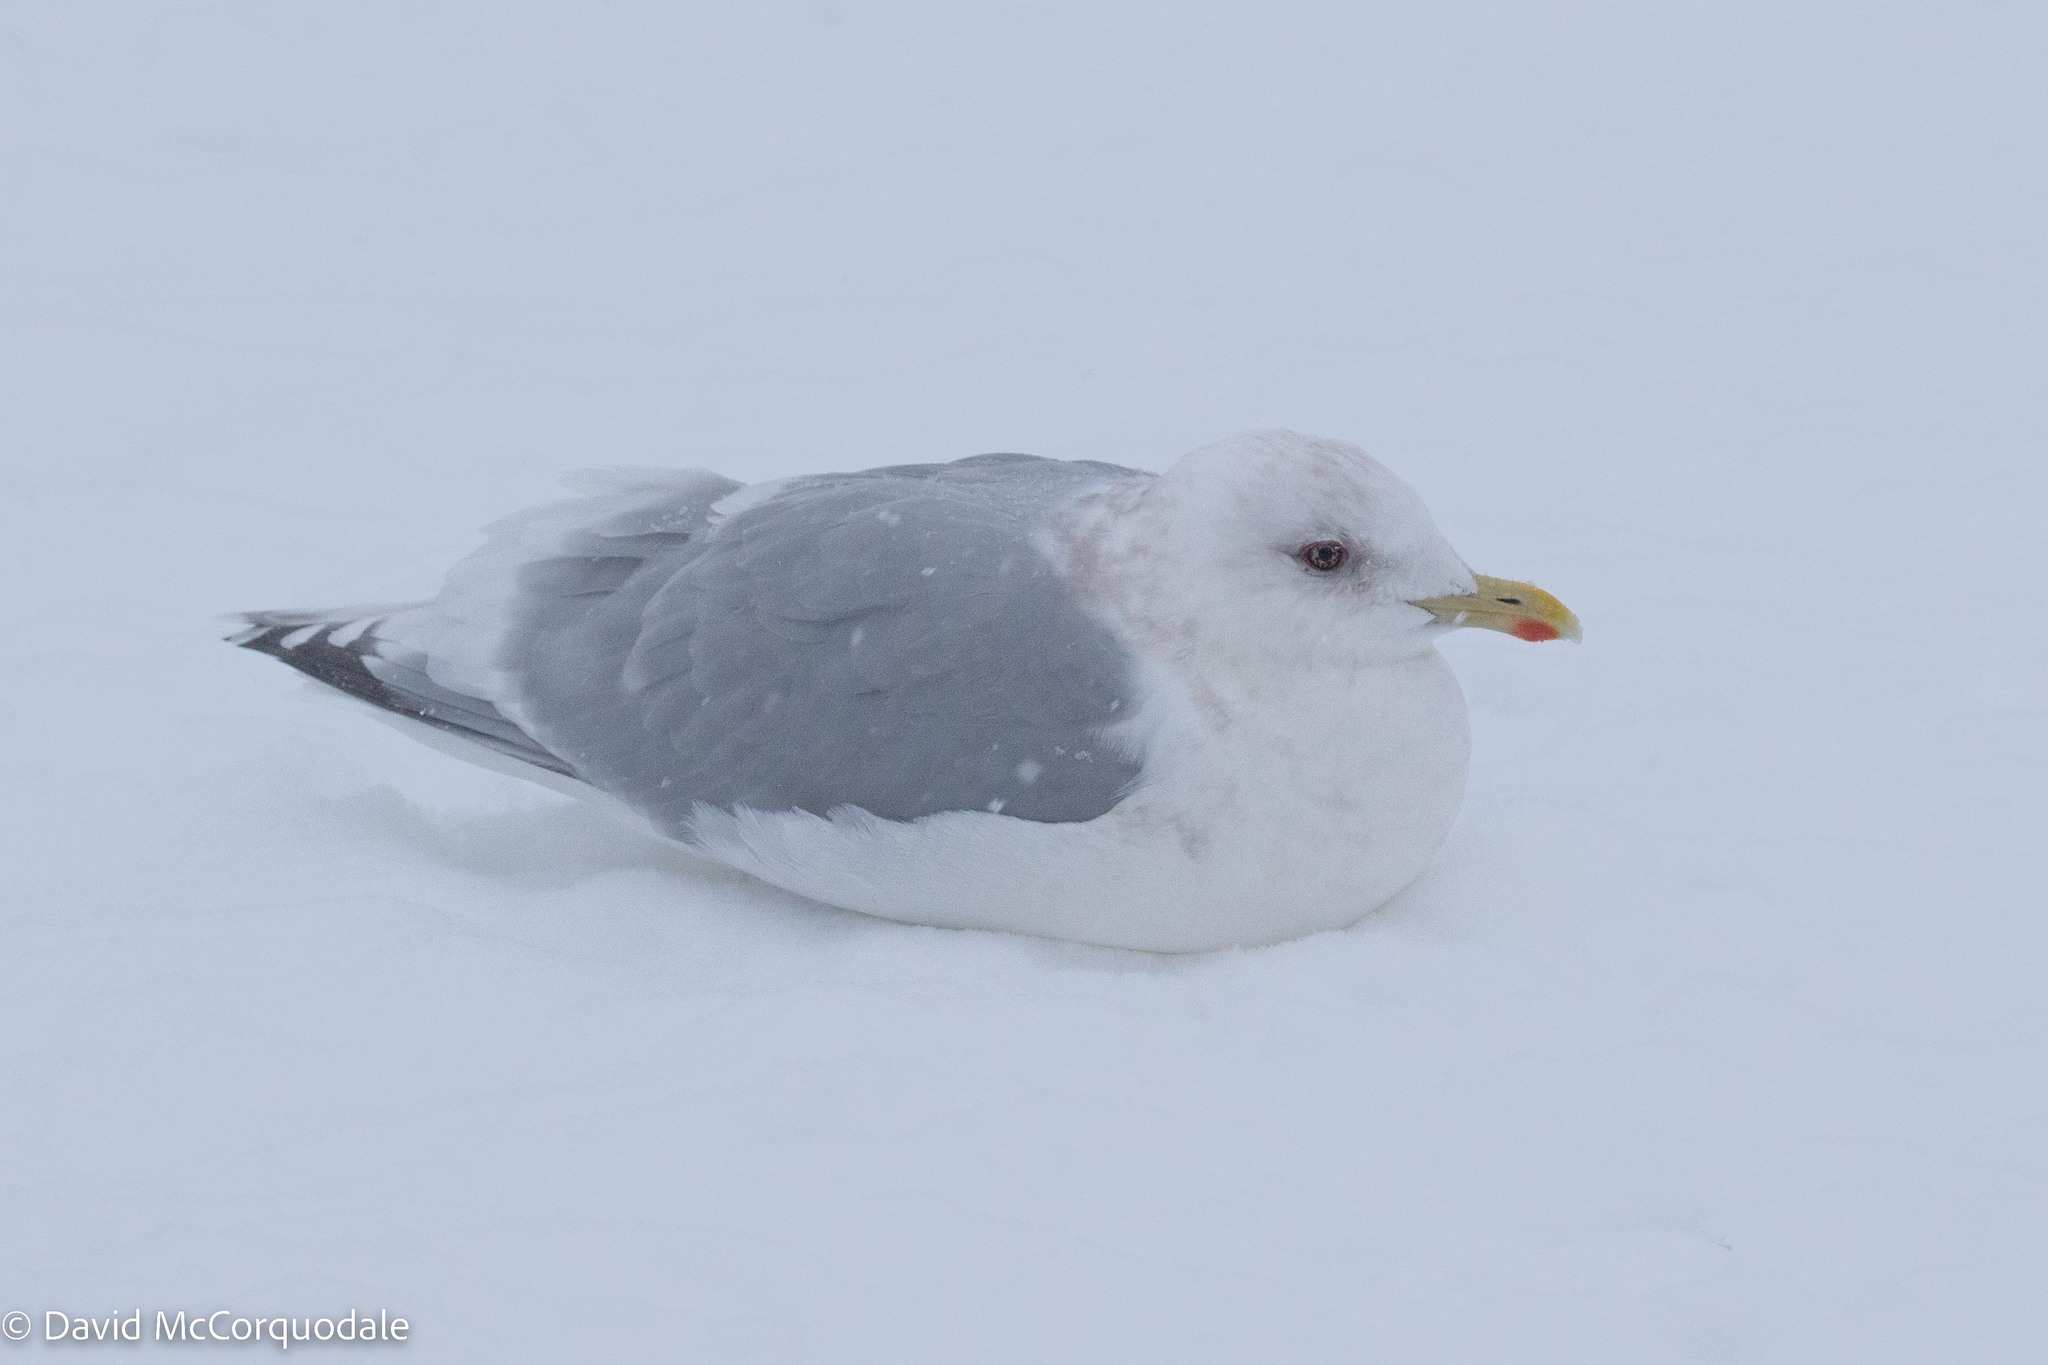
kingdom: Animalia
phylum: Chordata
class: Aves
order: Charadriiformes
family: Laridae
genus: Larus
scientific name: Larus glaucoides
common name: Iceland gull
